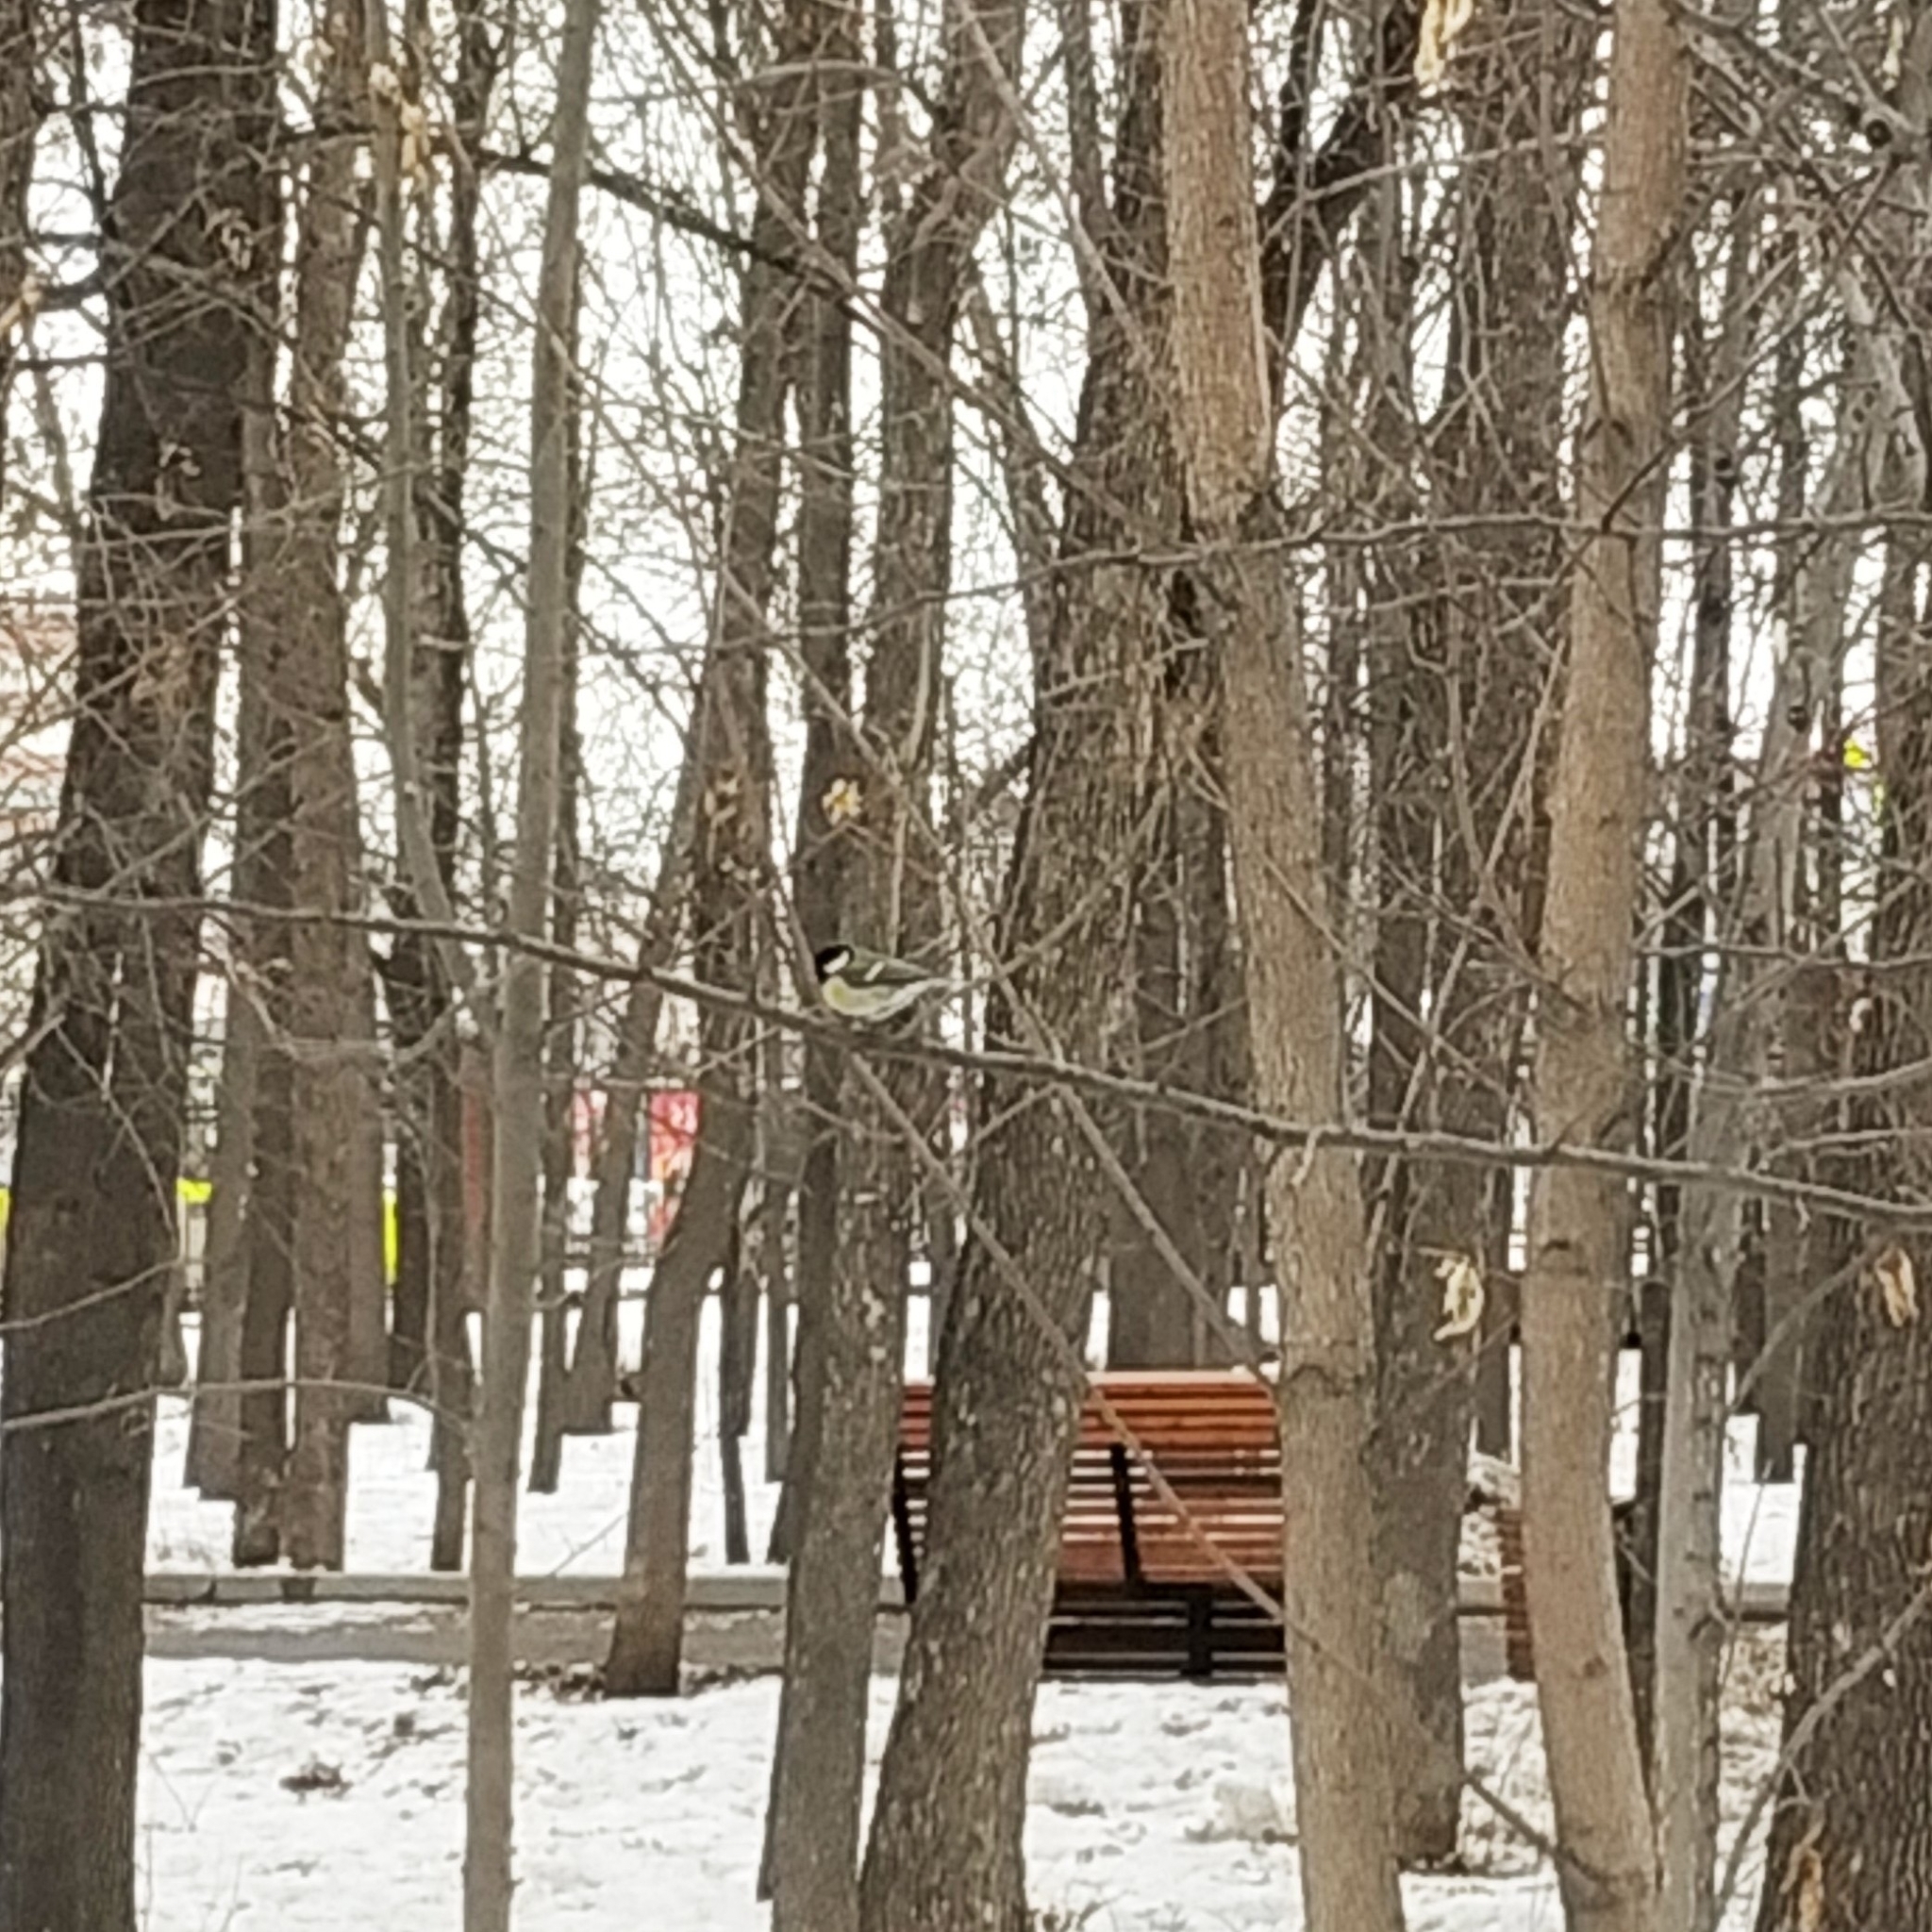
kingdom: Animalia
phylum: Chordata
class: Aves
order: Passeriformes
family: Paridae
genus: Parus
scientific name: Parus major
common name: Great tit
